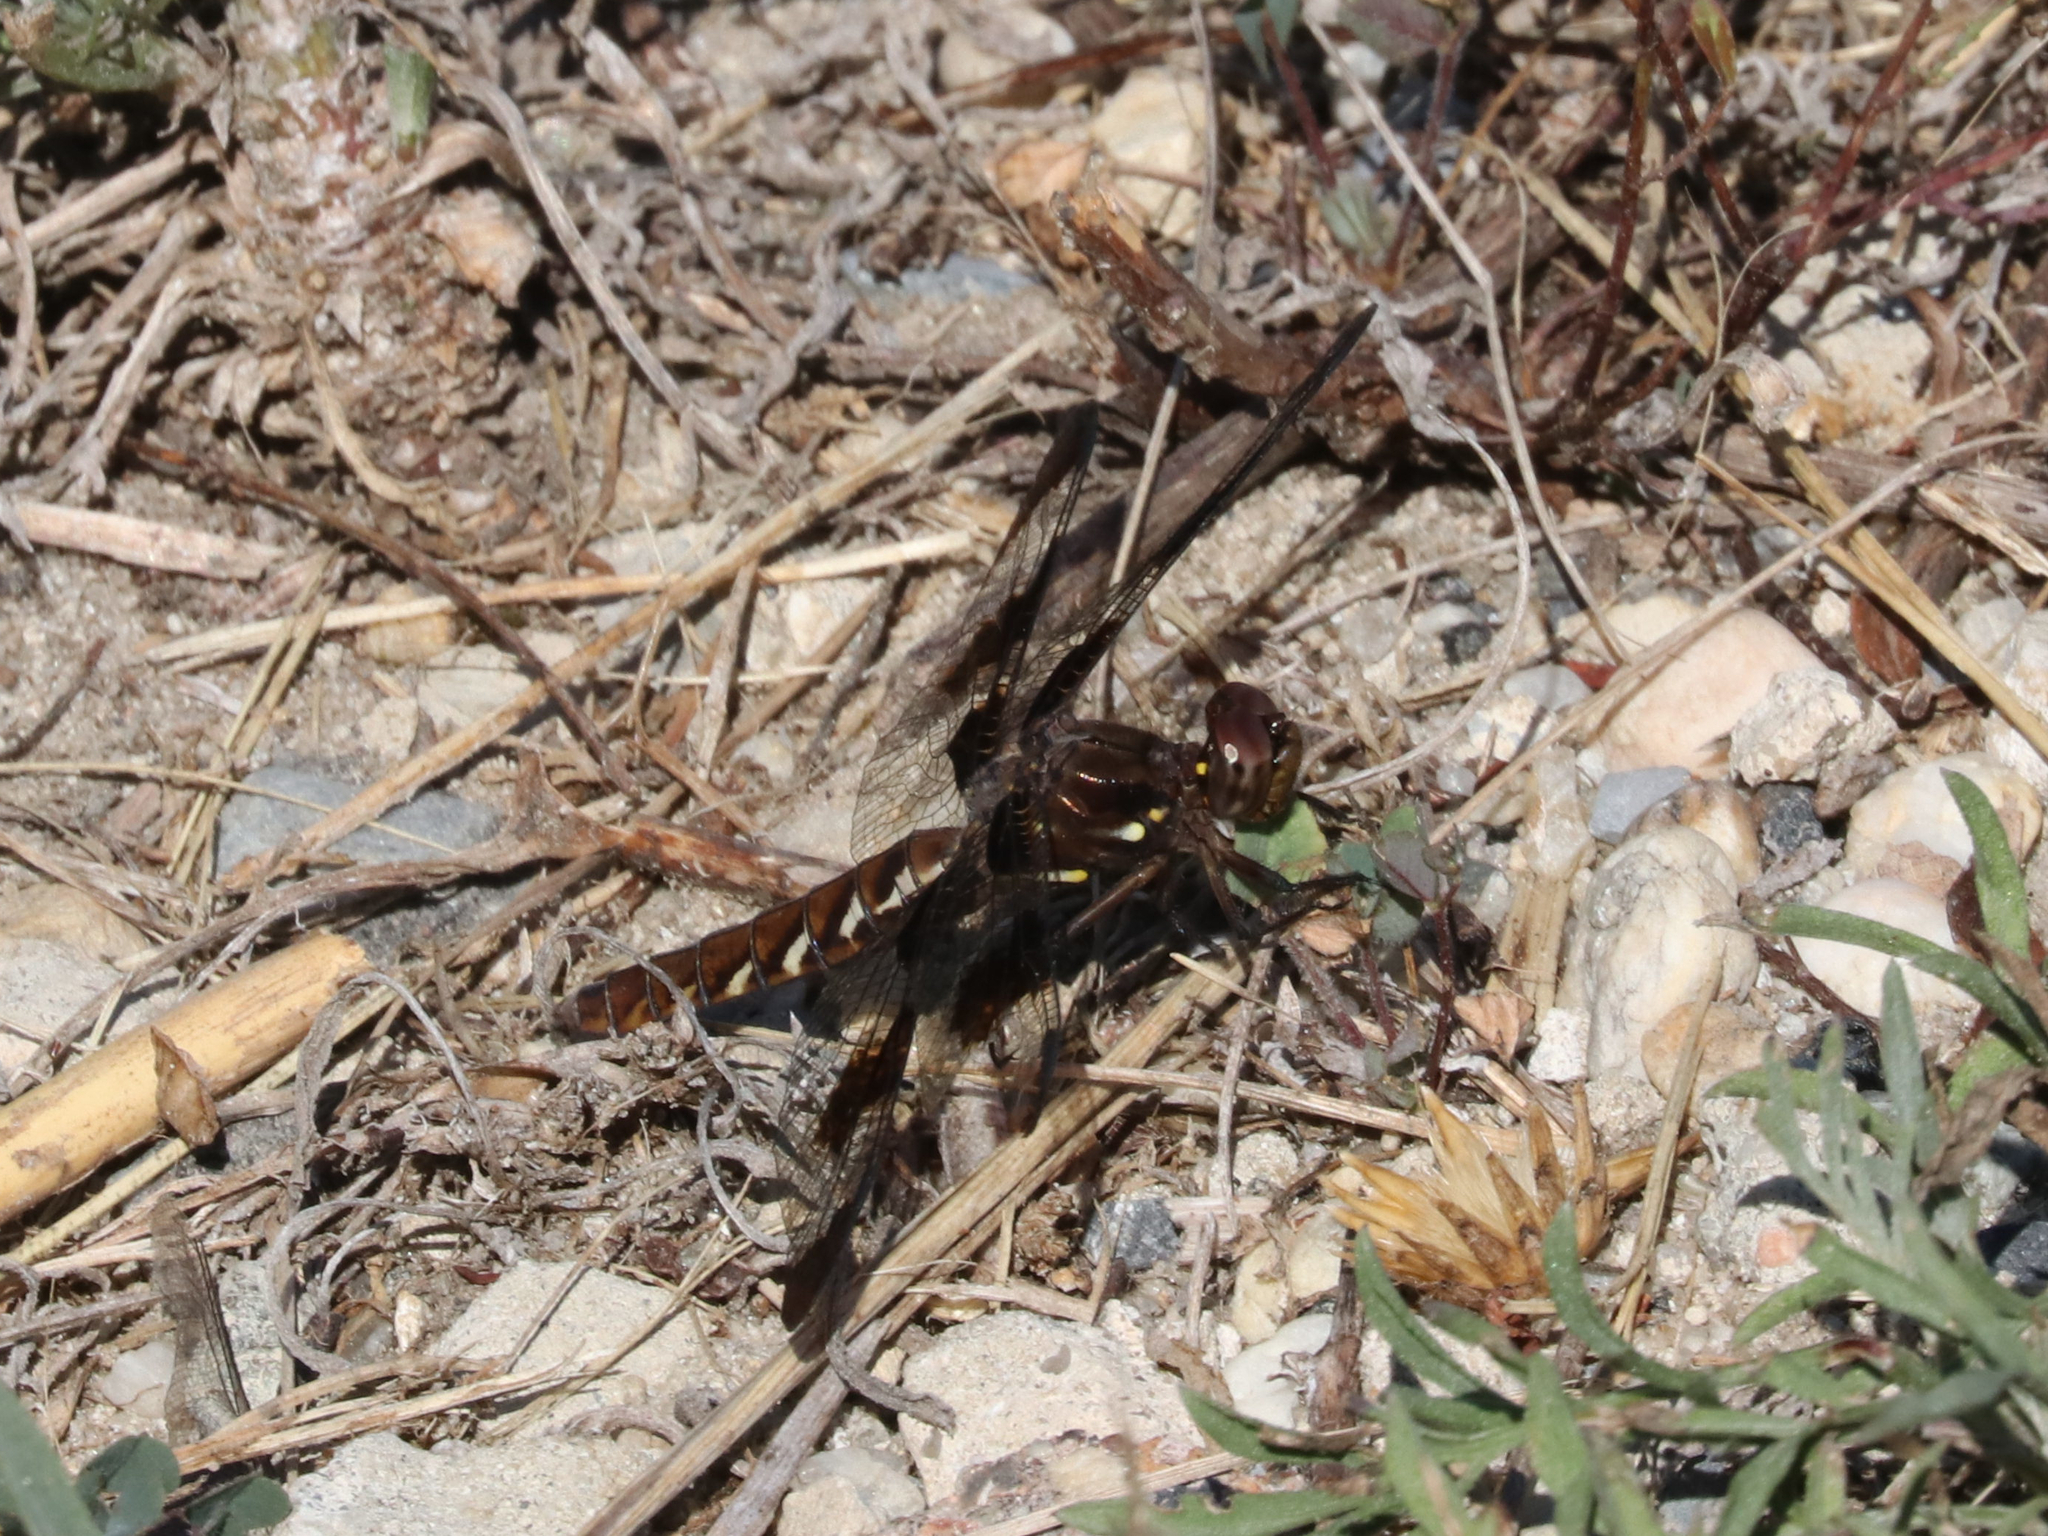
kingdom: Animalia
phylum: Arthropoda
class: Insecta
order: Odonata
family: Libellulidae
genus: Plathemis
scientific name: Plathemis lydia
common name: Common whitetail
